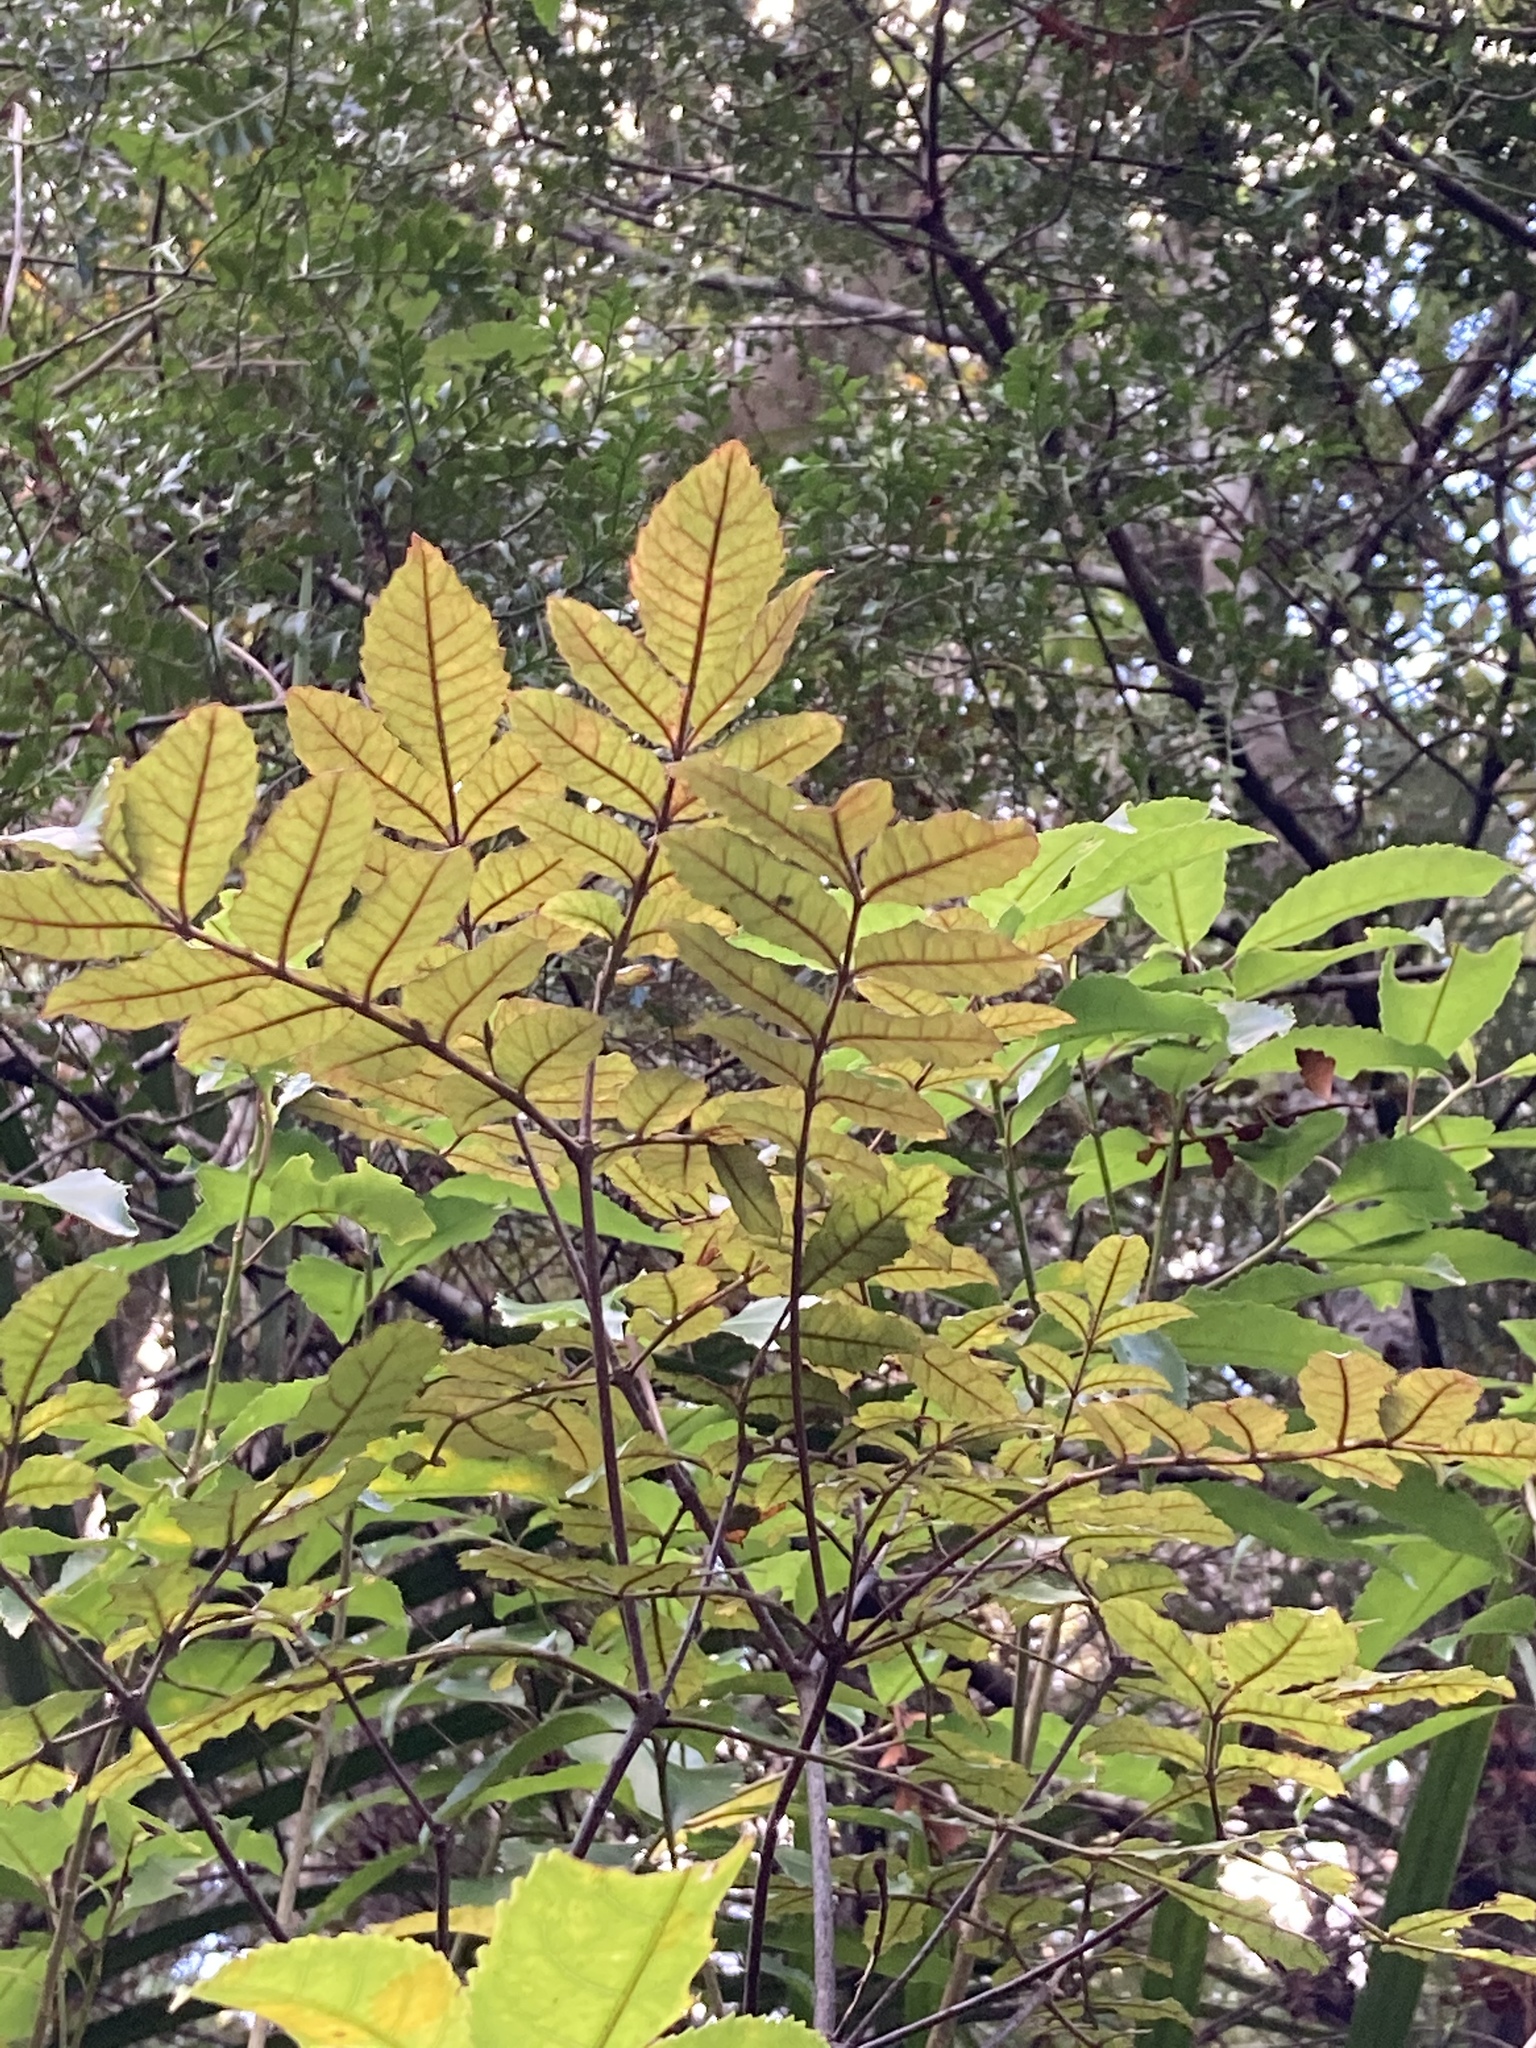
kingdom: Plantae
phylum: Tracheophyta
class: Magnoliopsida
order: Oxalidales
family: Cunoniaceae
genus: Ackama
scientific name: Ackama rosifolia
